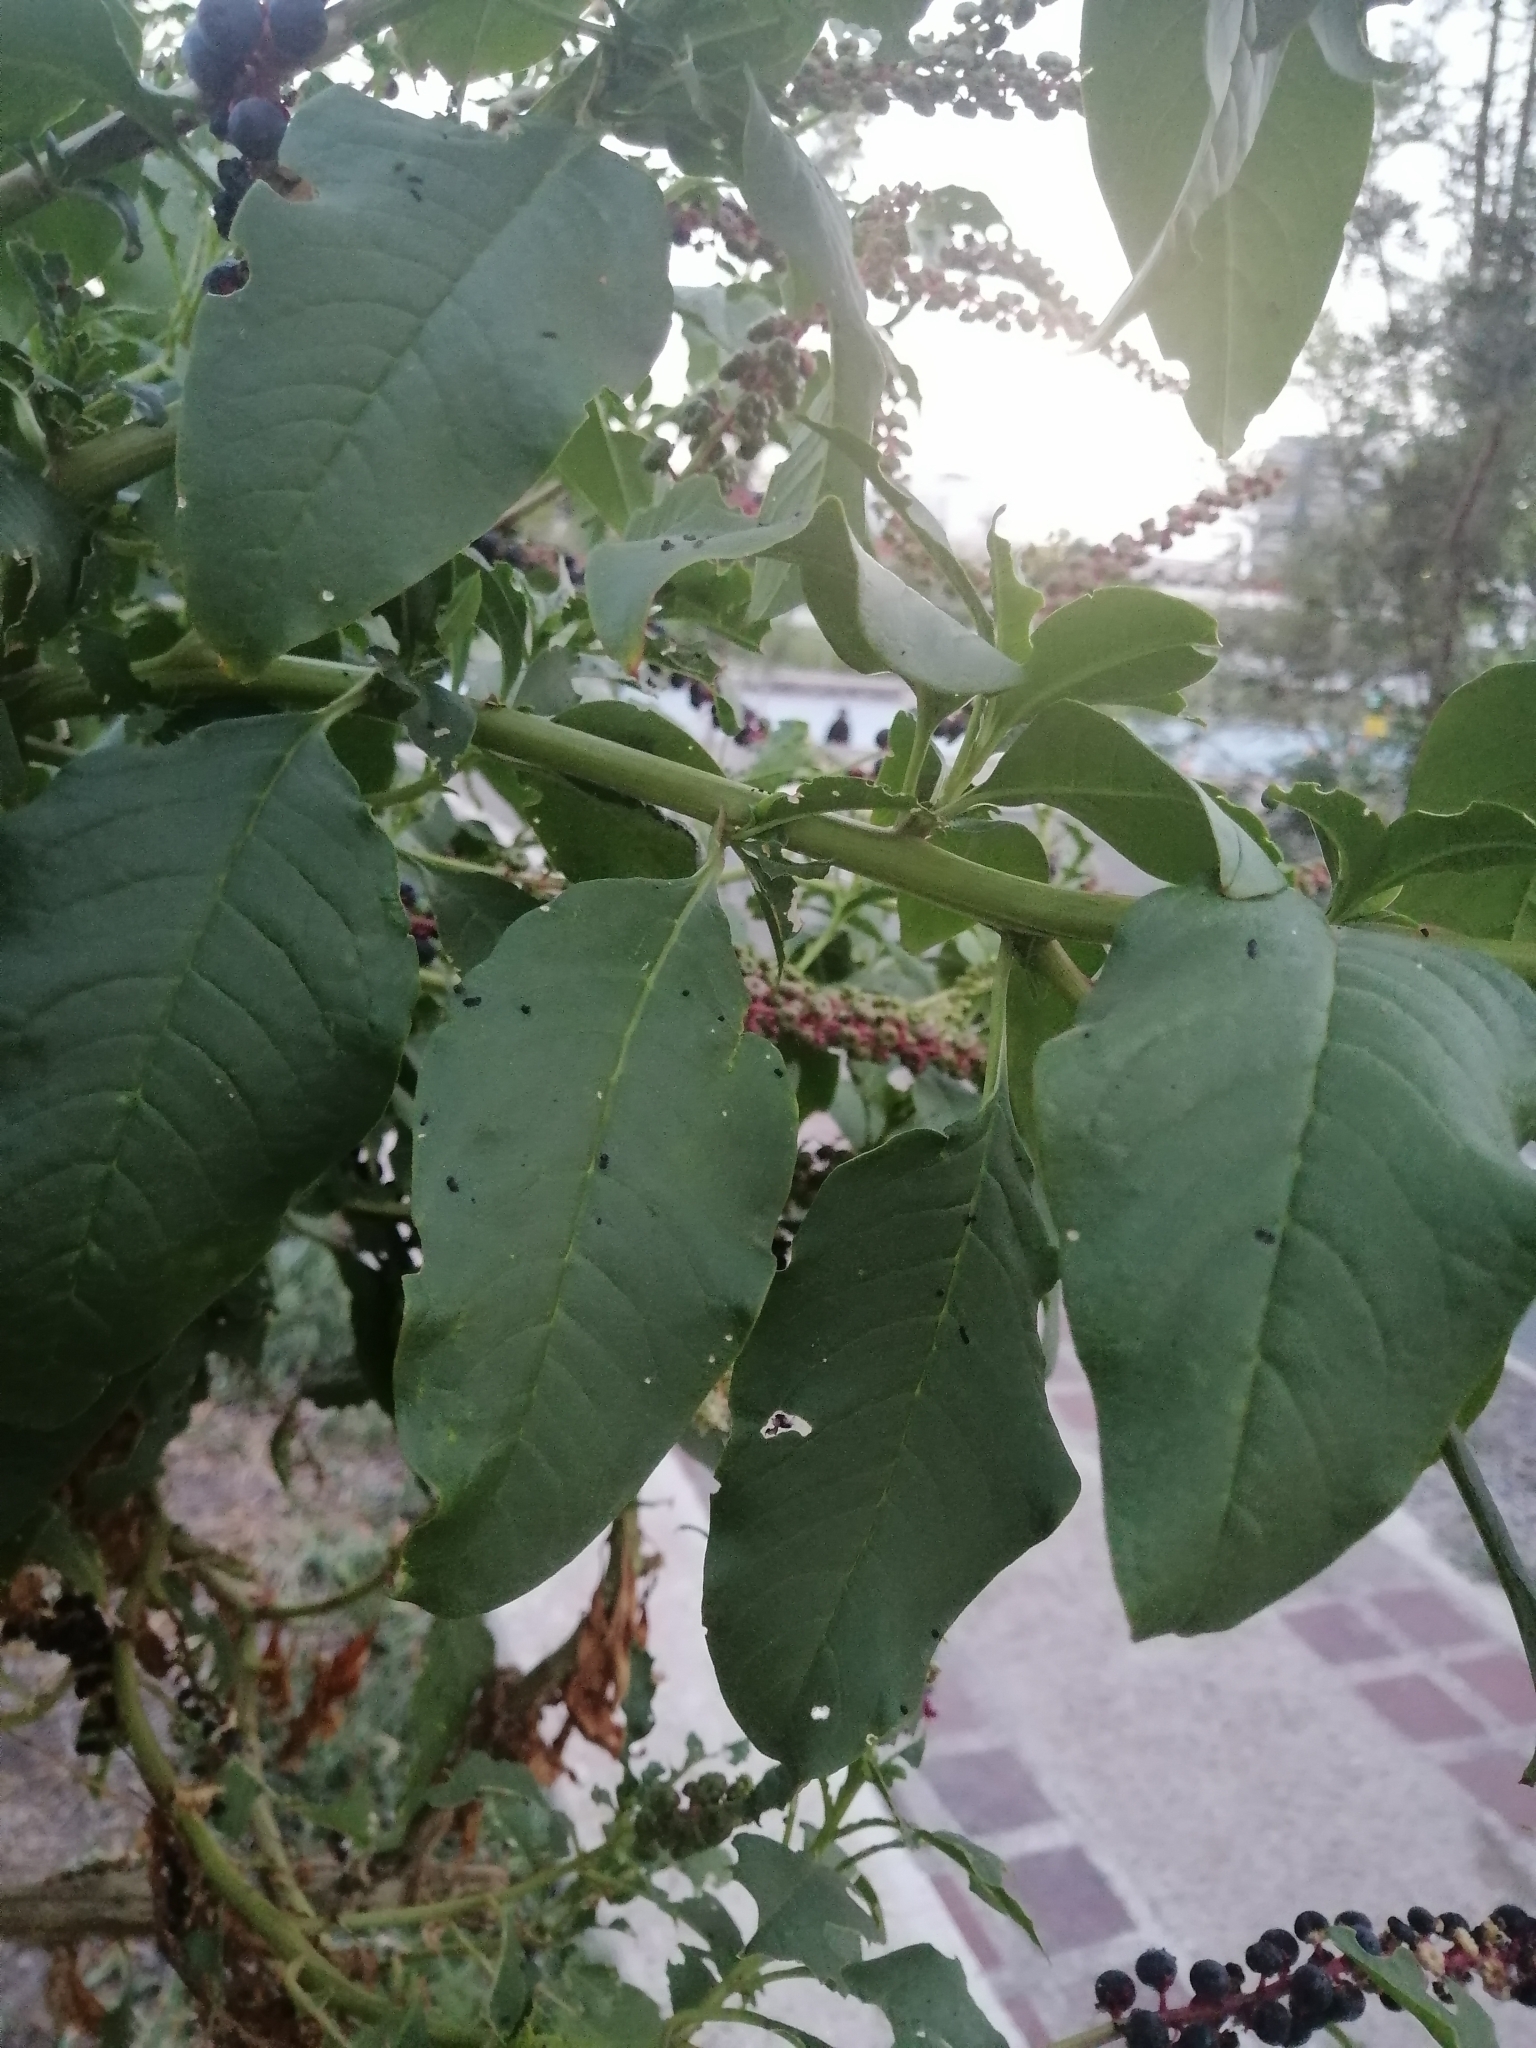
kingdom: Plantae
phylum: Tracheophyta
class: Magnoliopsida
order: Caryophyllales
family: Phytolaccaceae
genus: Phytolacca
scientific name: Phytolacca
